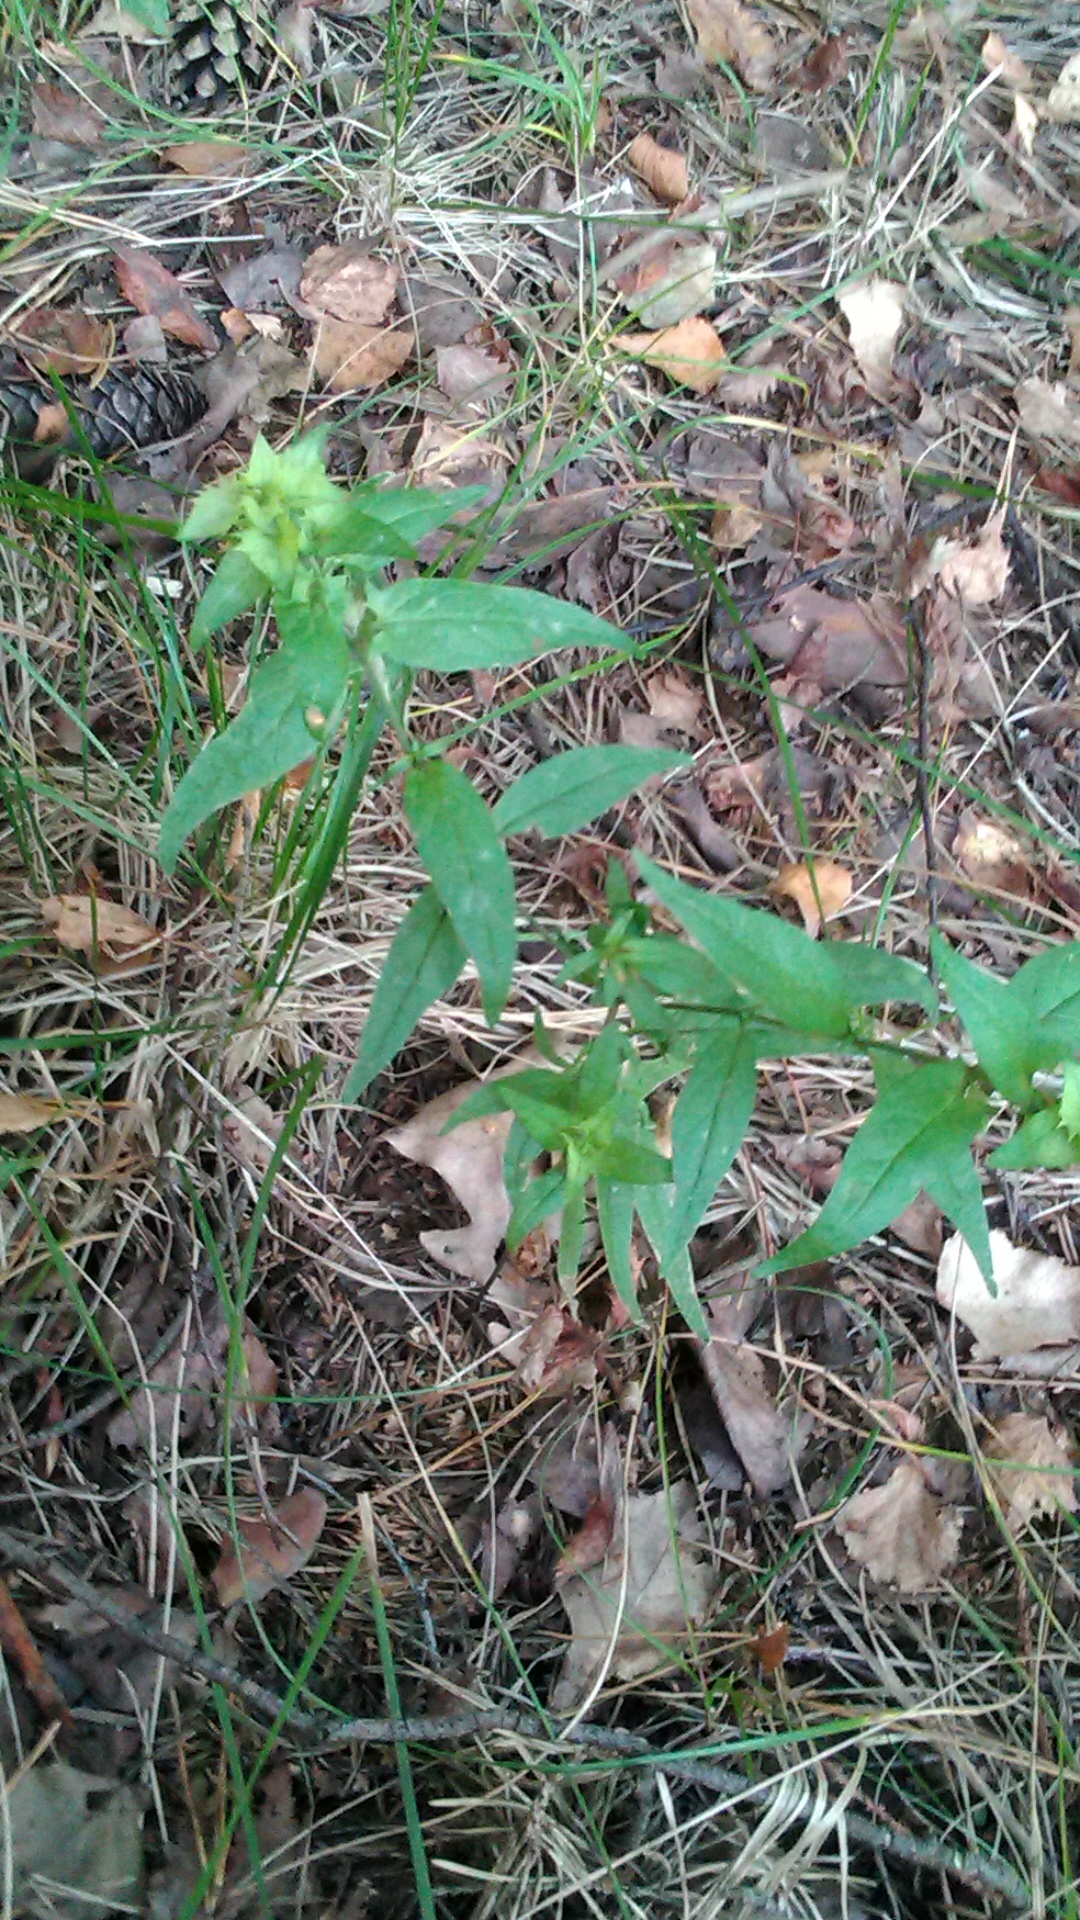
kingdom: Plantae
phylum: Tracheophyta
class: Magnoliopsida
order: Lamiales
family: Orobanchaceae
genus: Melampyrum
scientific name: Melampyrum nemorosum
